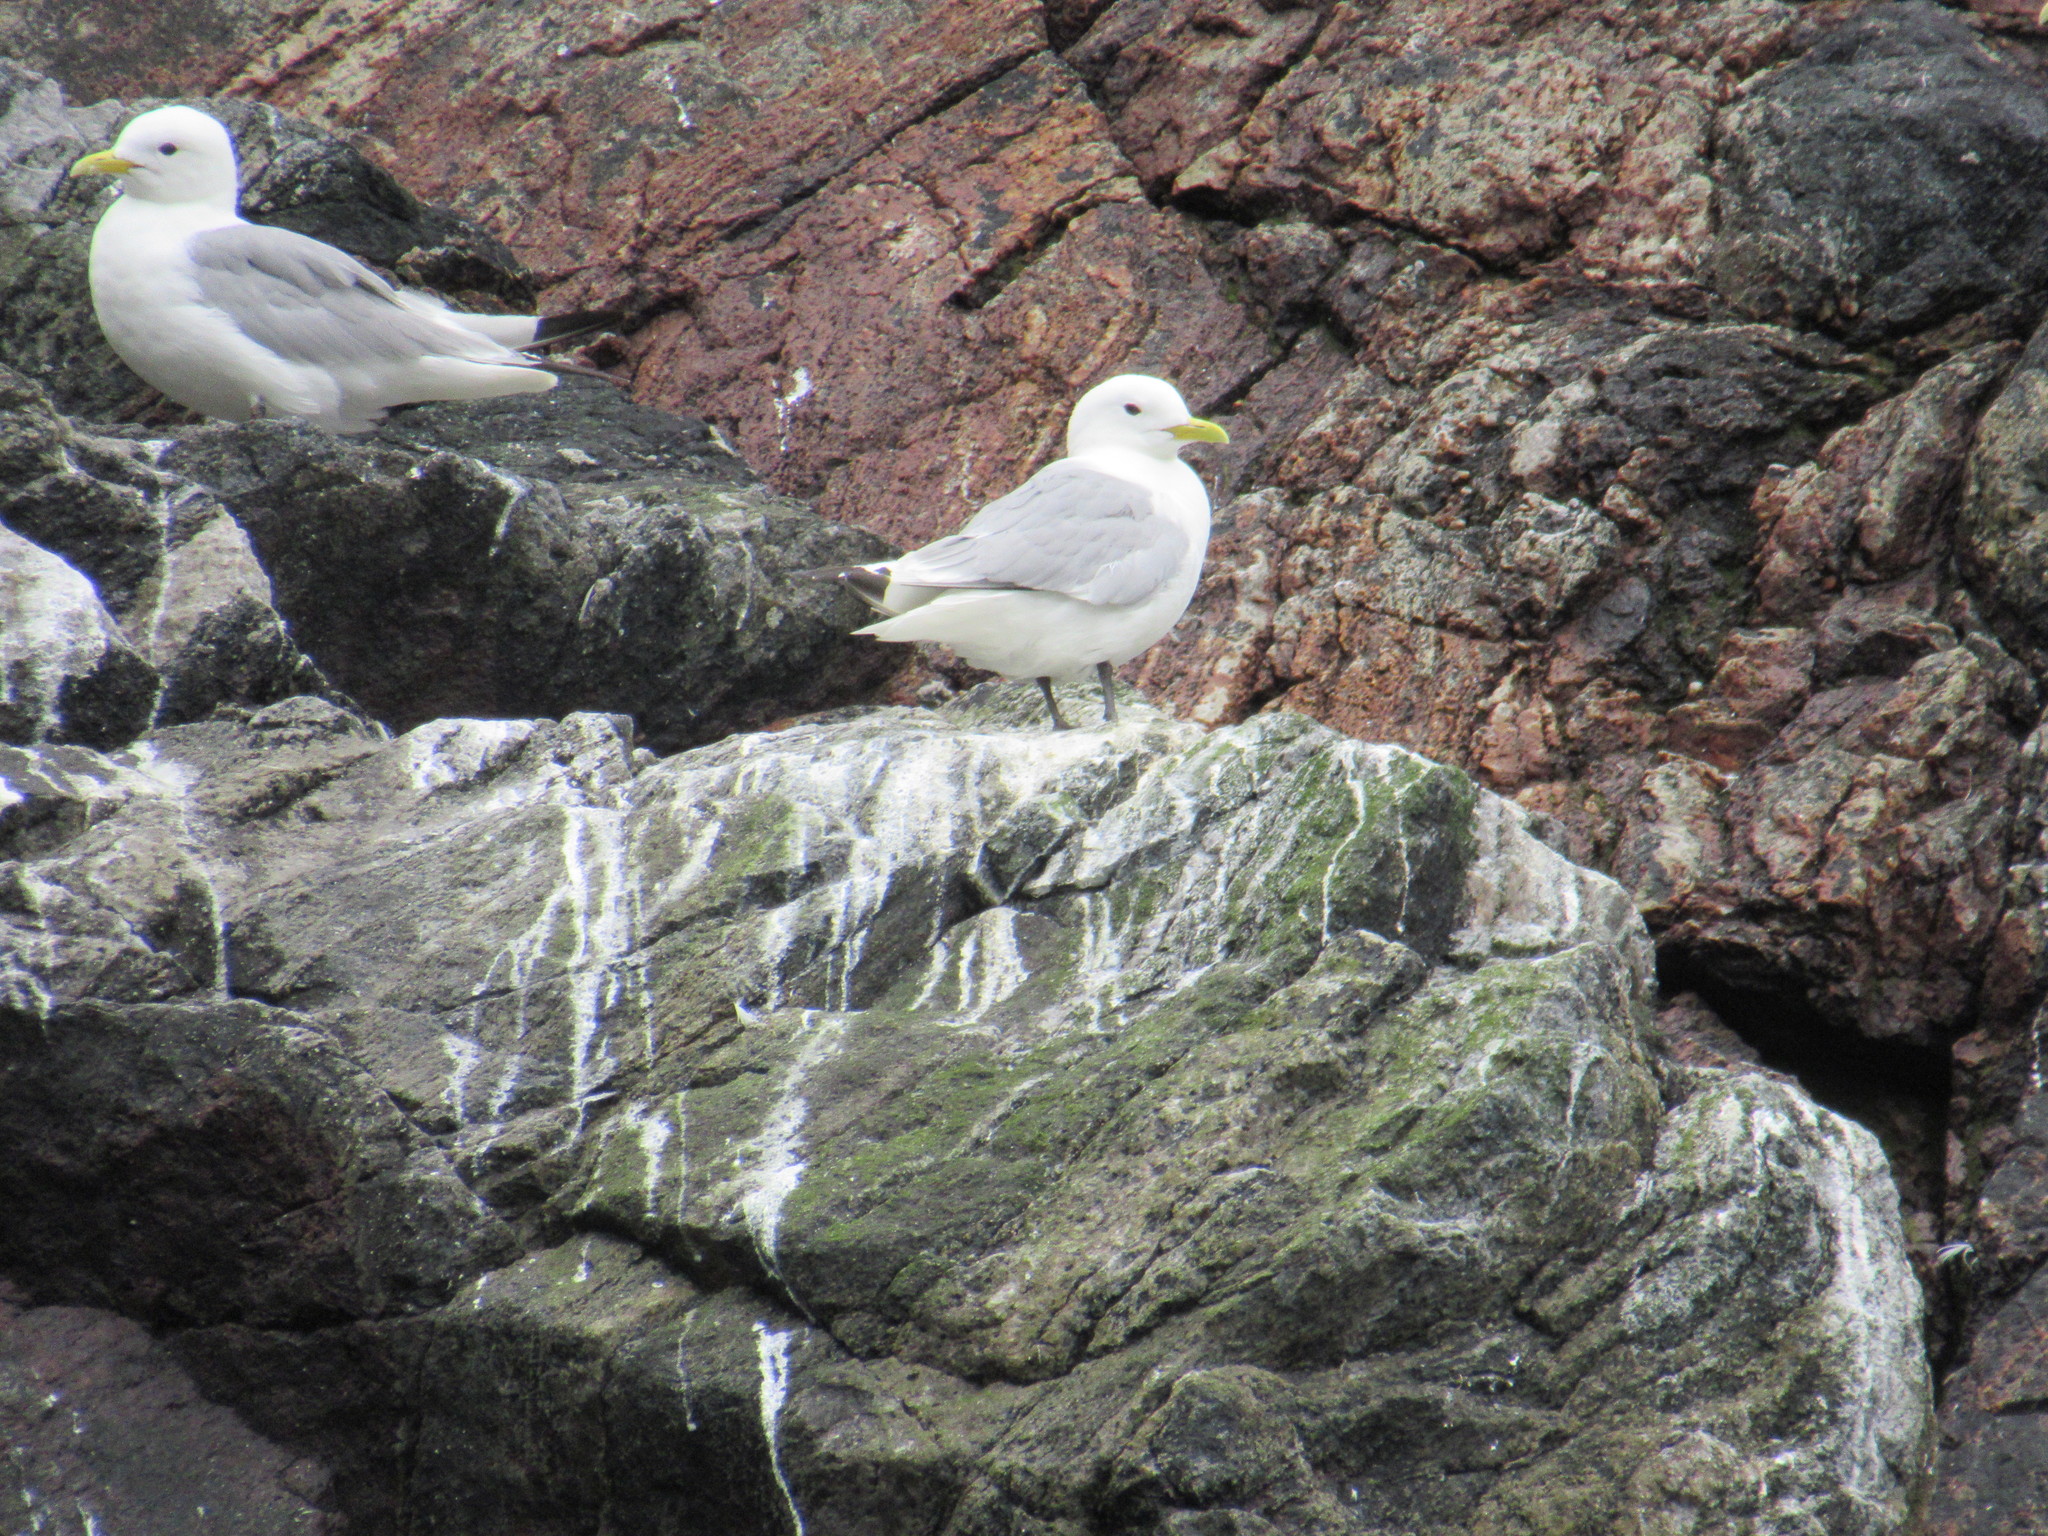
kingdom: Animalia
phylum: Chordata
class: Aves
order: Charadriiformes
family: Laridae
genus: Rissa
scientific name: Rissa tridactyla
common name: Black-legged kittiwake
